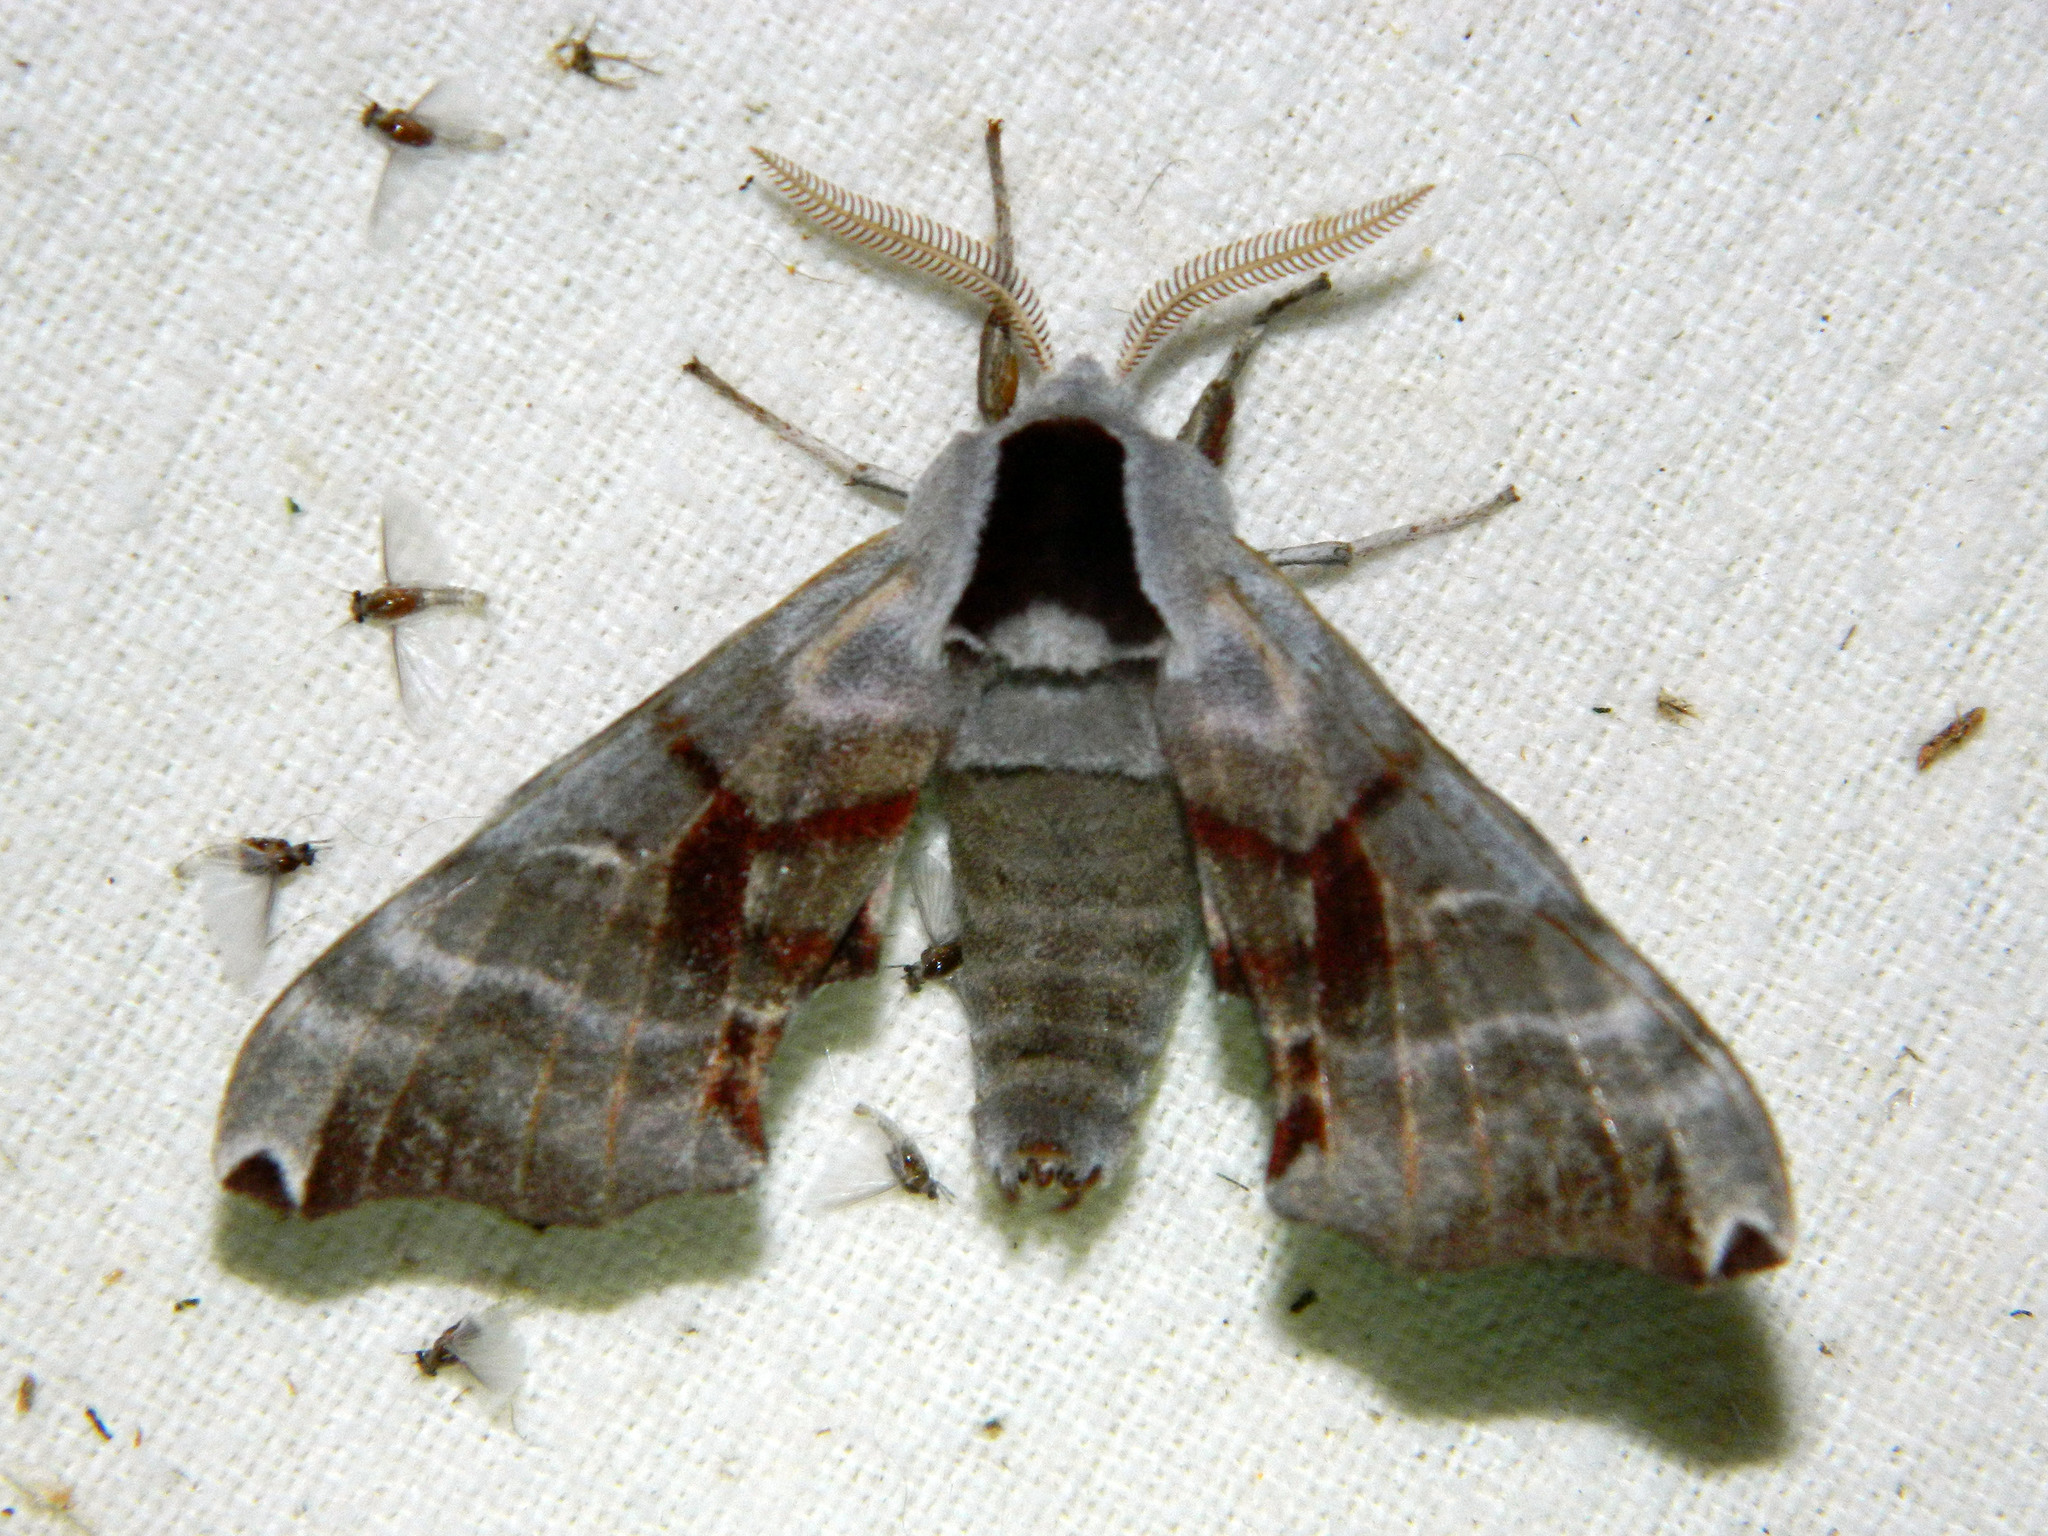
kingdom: Animalia
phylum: Arthropoda
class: Insecta
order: Lepidoptera
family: Sphingidae
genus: Smerinthus
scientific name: Smerinthus jamaicensis
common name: Twin spotted sphinx
